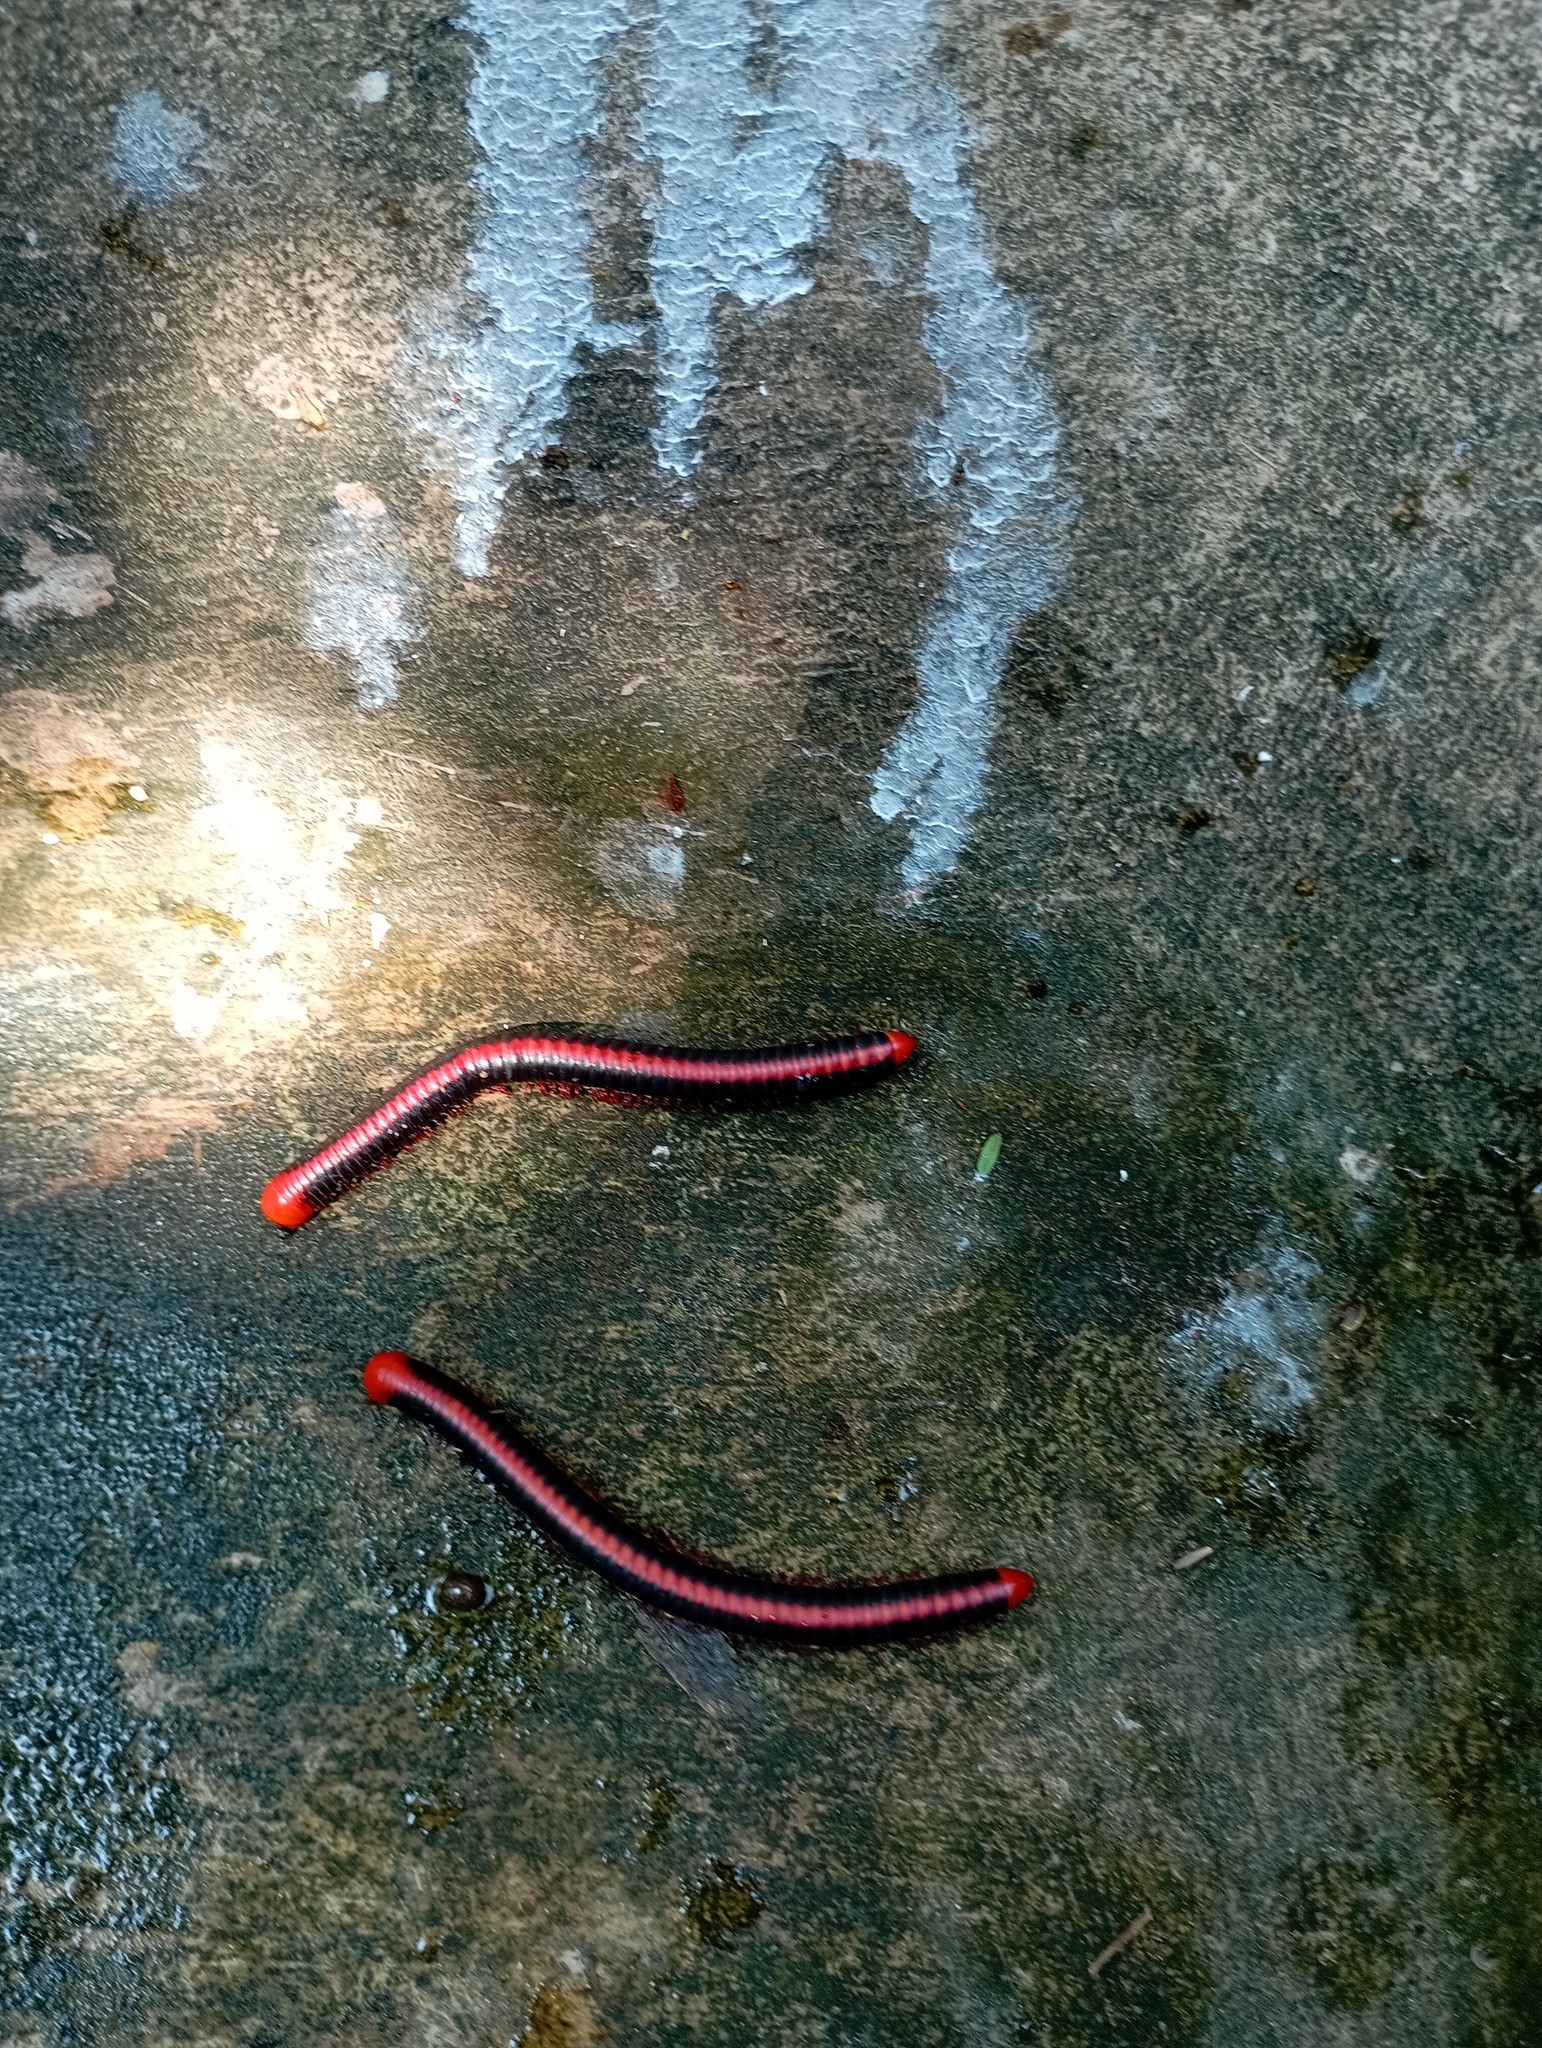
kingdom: Animalia
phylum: Arthropoda
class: Diplopoda
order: Spirobolida
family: Pachybolidae
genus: Xenobolus
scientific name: Xenobolus carnifex
